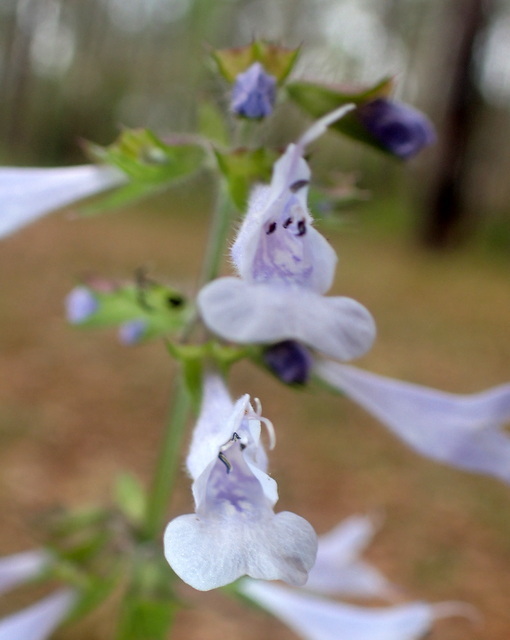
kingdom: Plantae
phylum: Tracheophyta
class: Magnoliopsida
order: Lamiales
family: Lamiaceae
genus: Salvia
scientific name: Salvia lyrata
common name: Cancerweed
